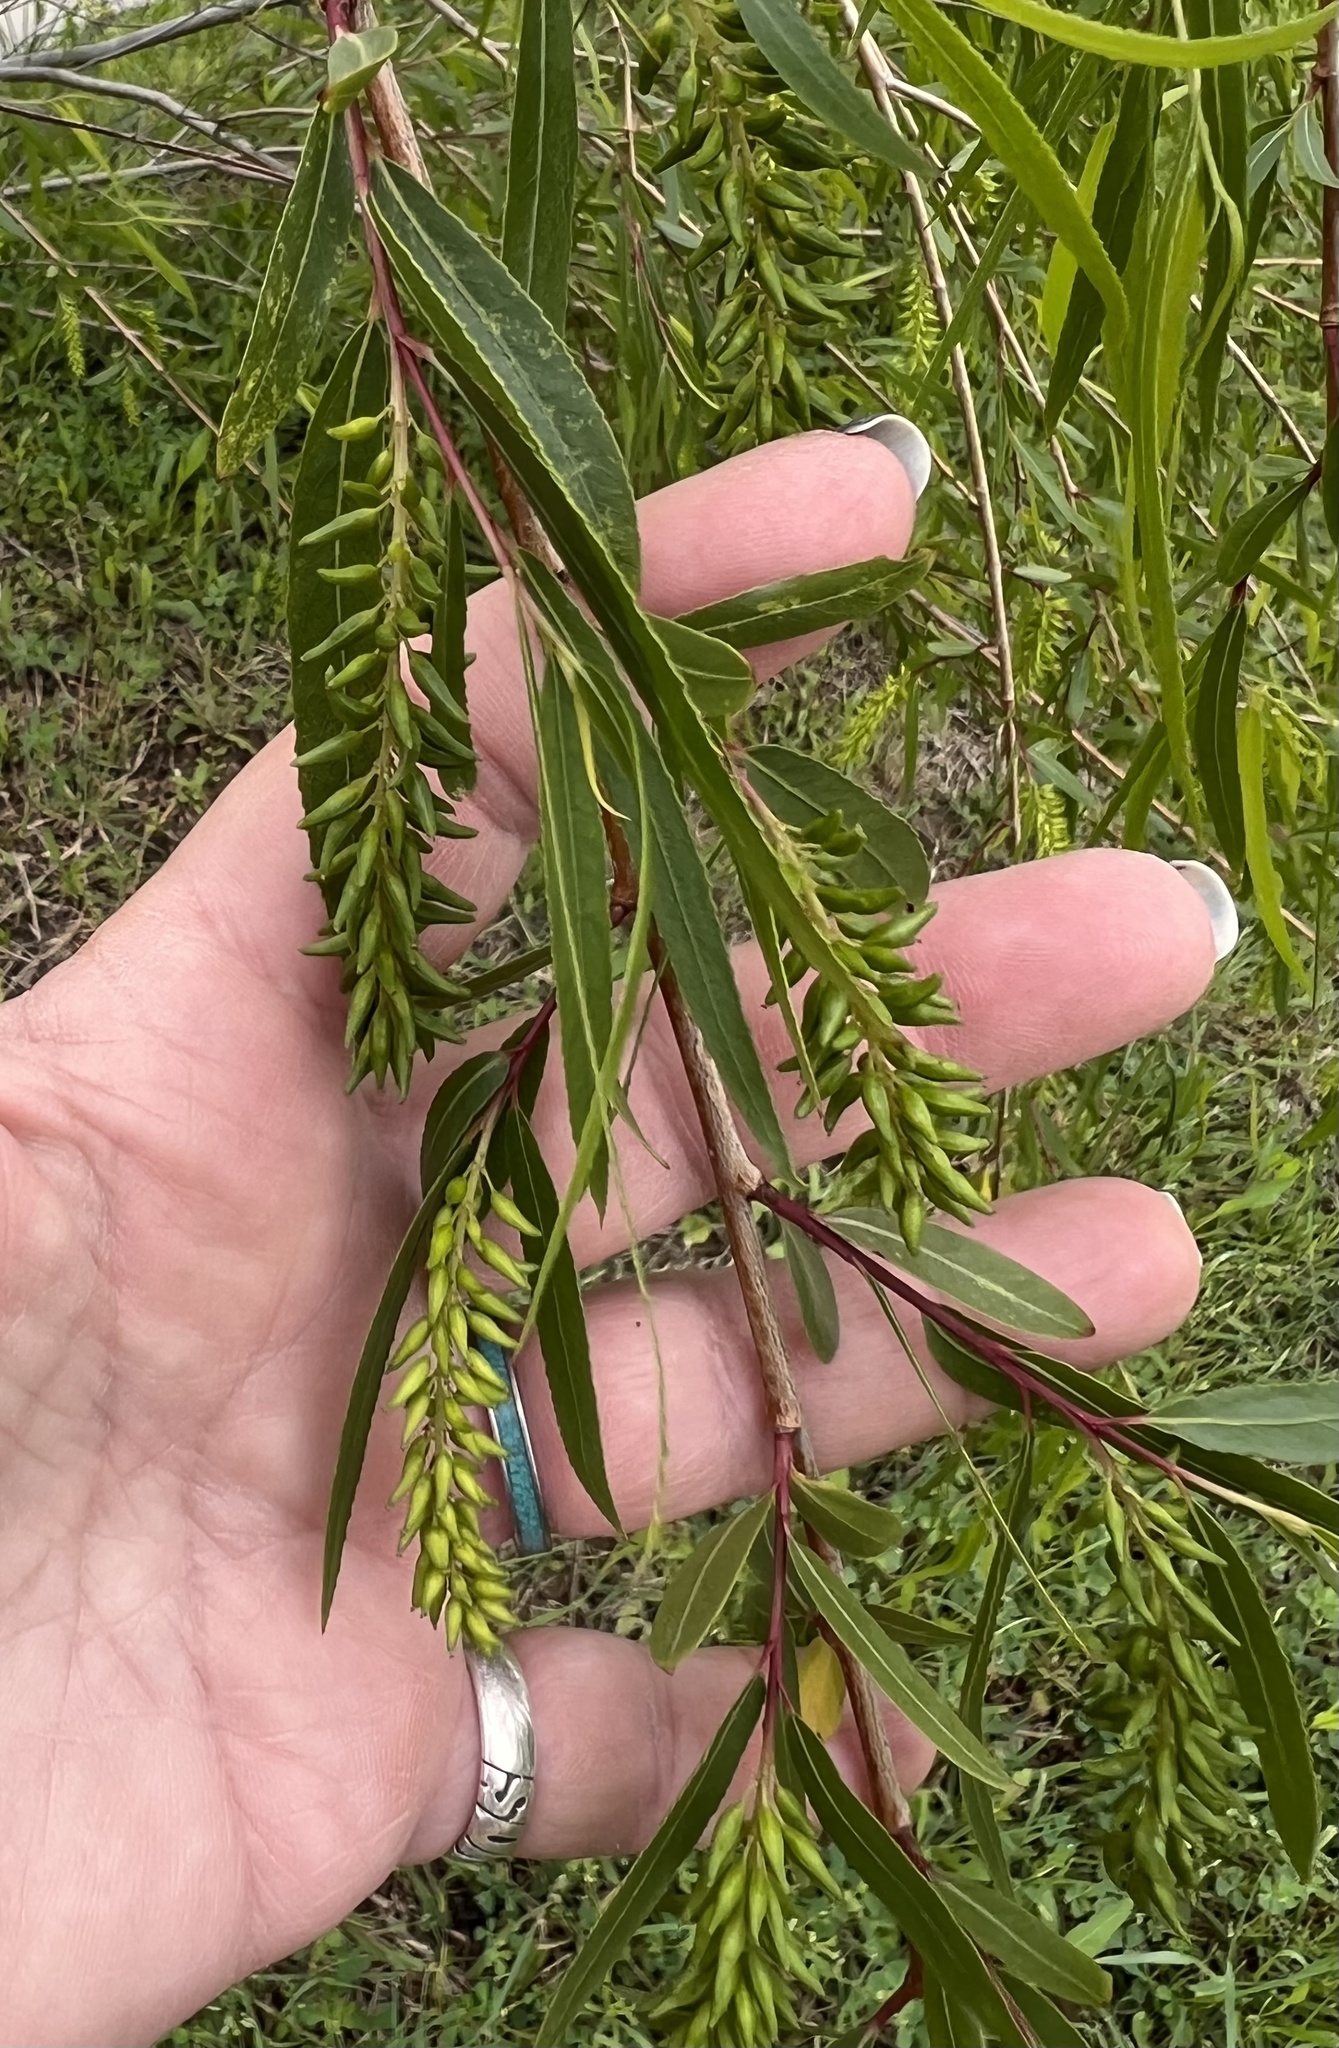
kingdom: Plantae
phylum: Tracheophyta
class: Magnoliopsida
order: Malpighiales
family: Salicaceae
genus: Salix
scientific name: Salix nigra
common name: Black willow
